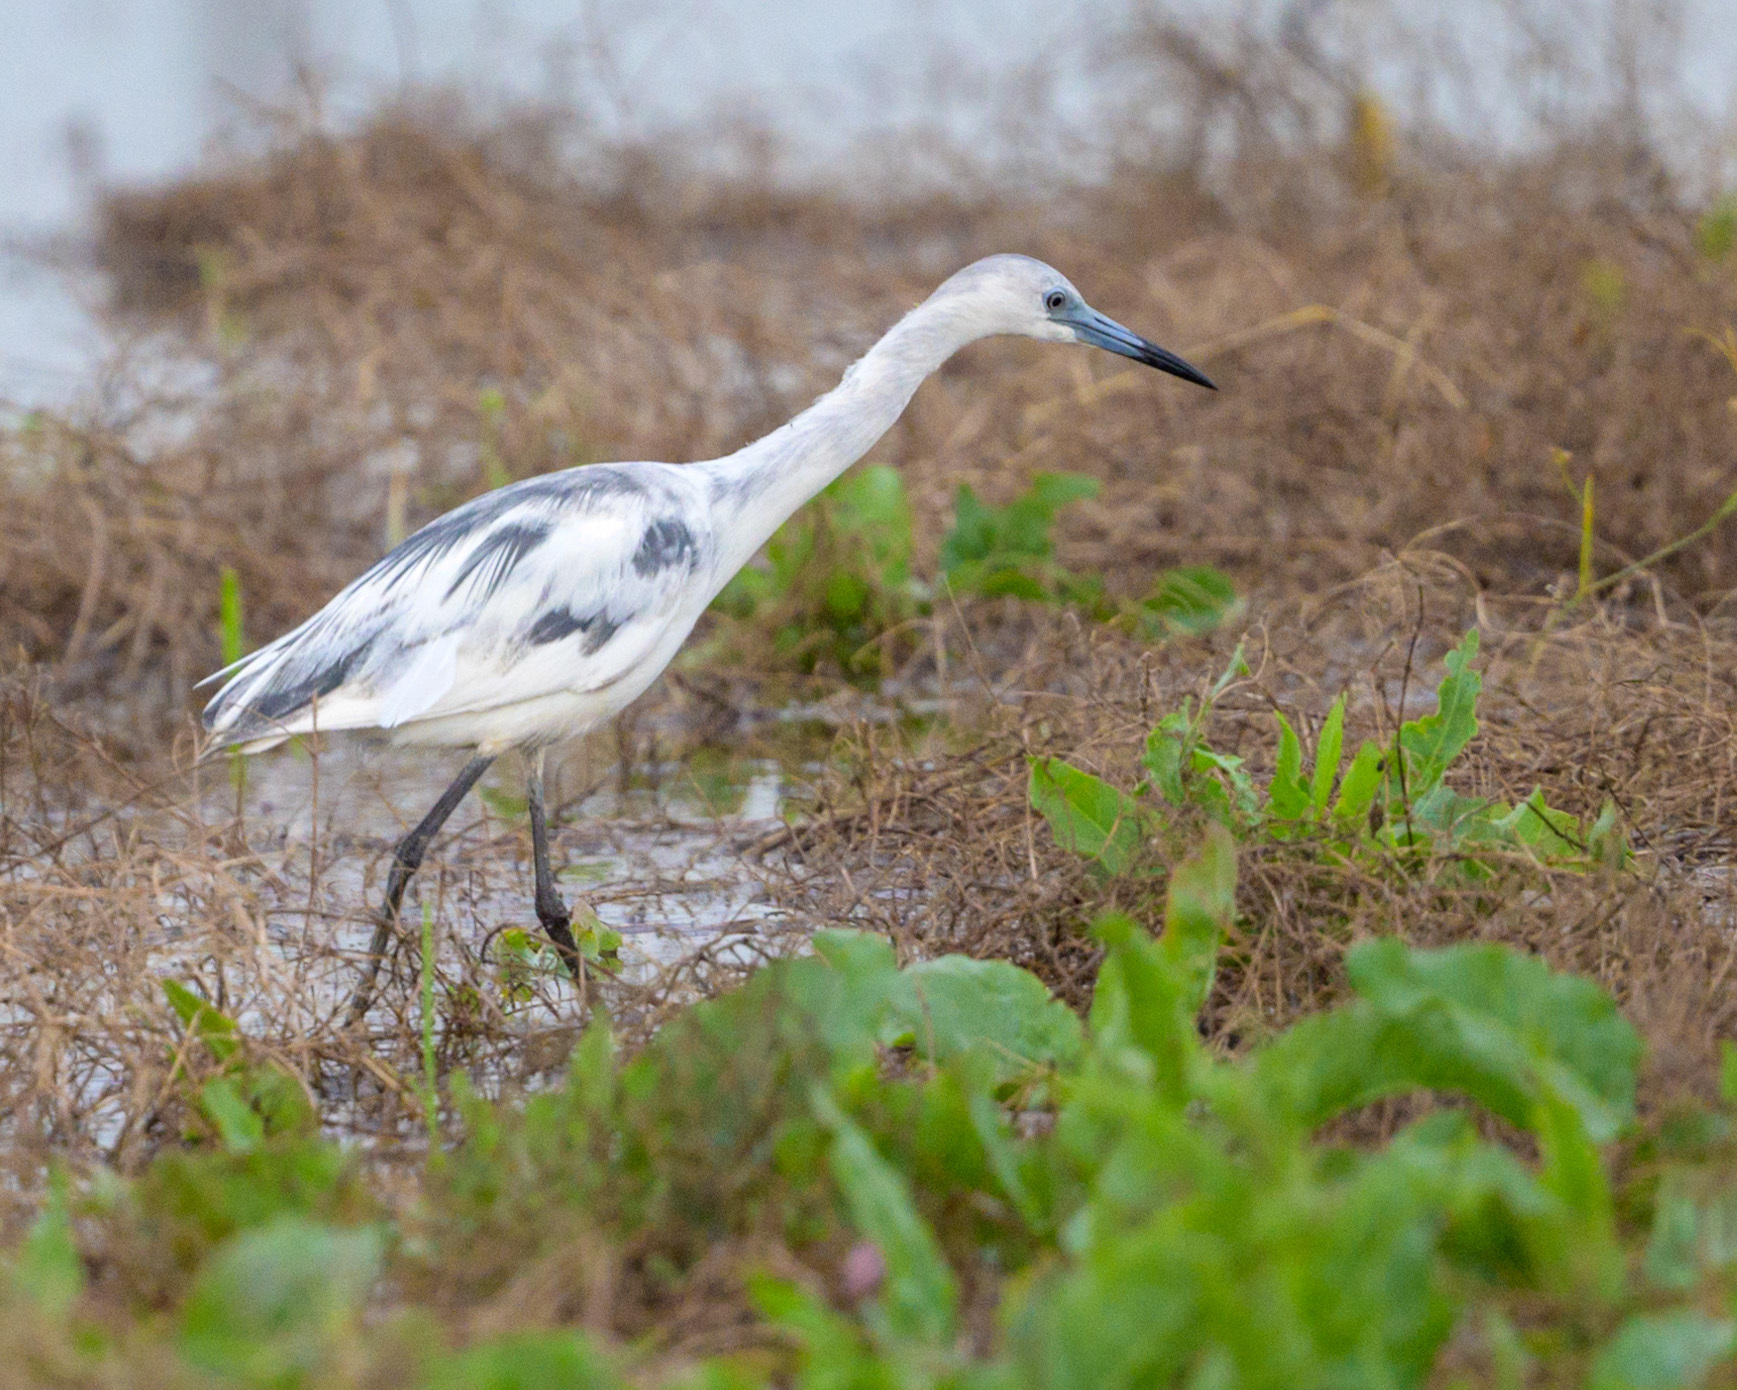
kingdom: Animalia
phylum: Chordata
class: Aves
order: Pelecaniformes
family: Ardeidae
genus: Egretta
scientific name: Egretta caerulea
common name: Little blue heron
